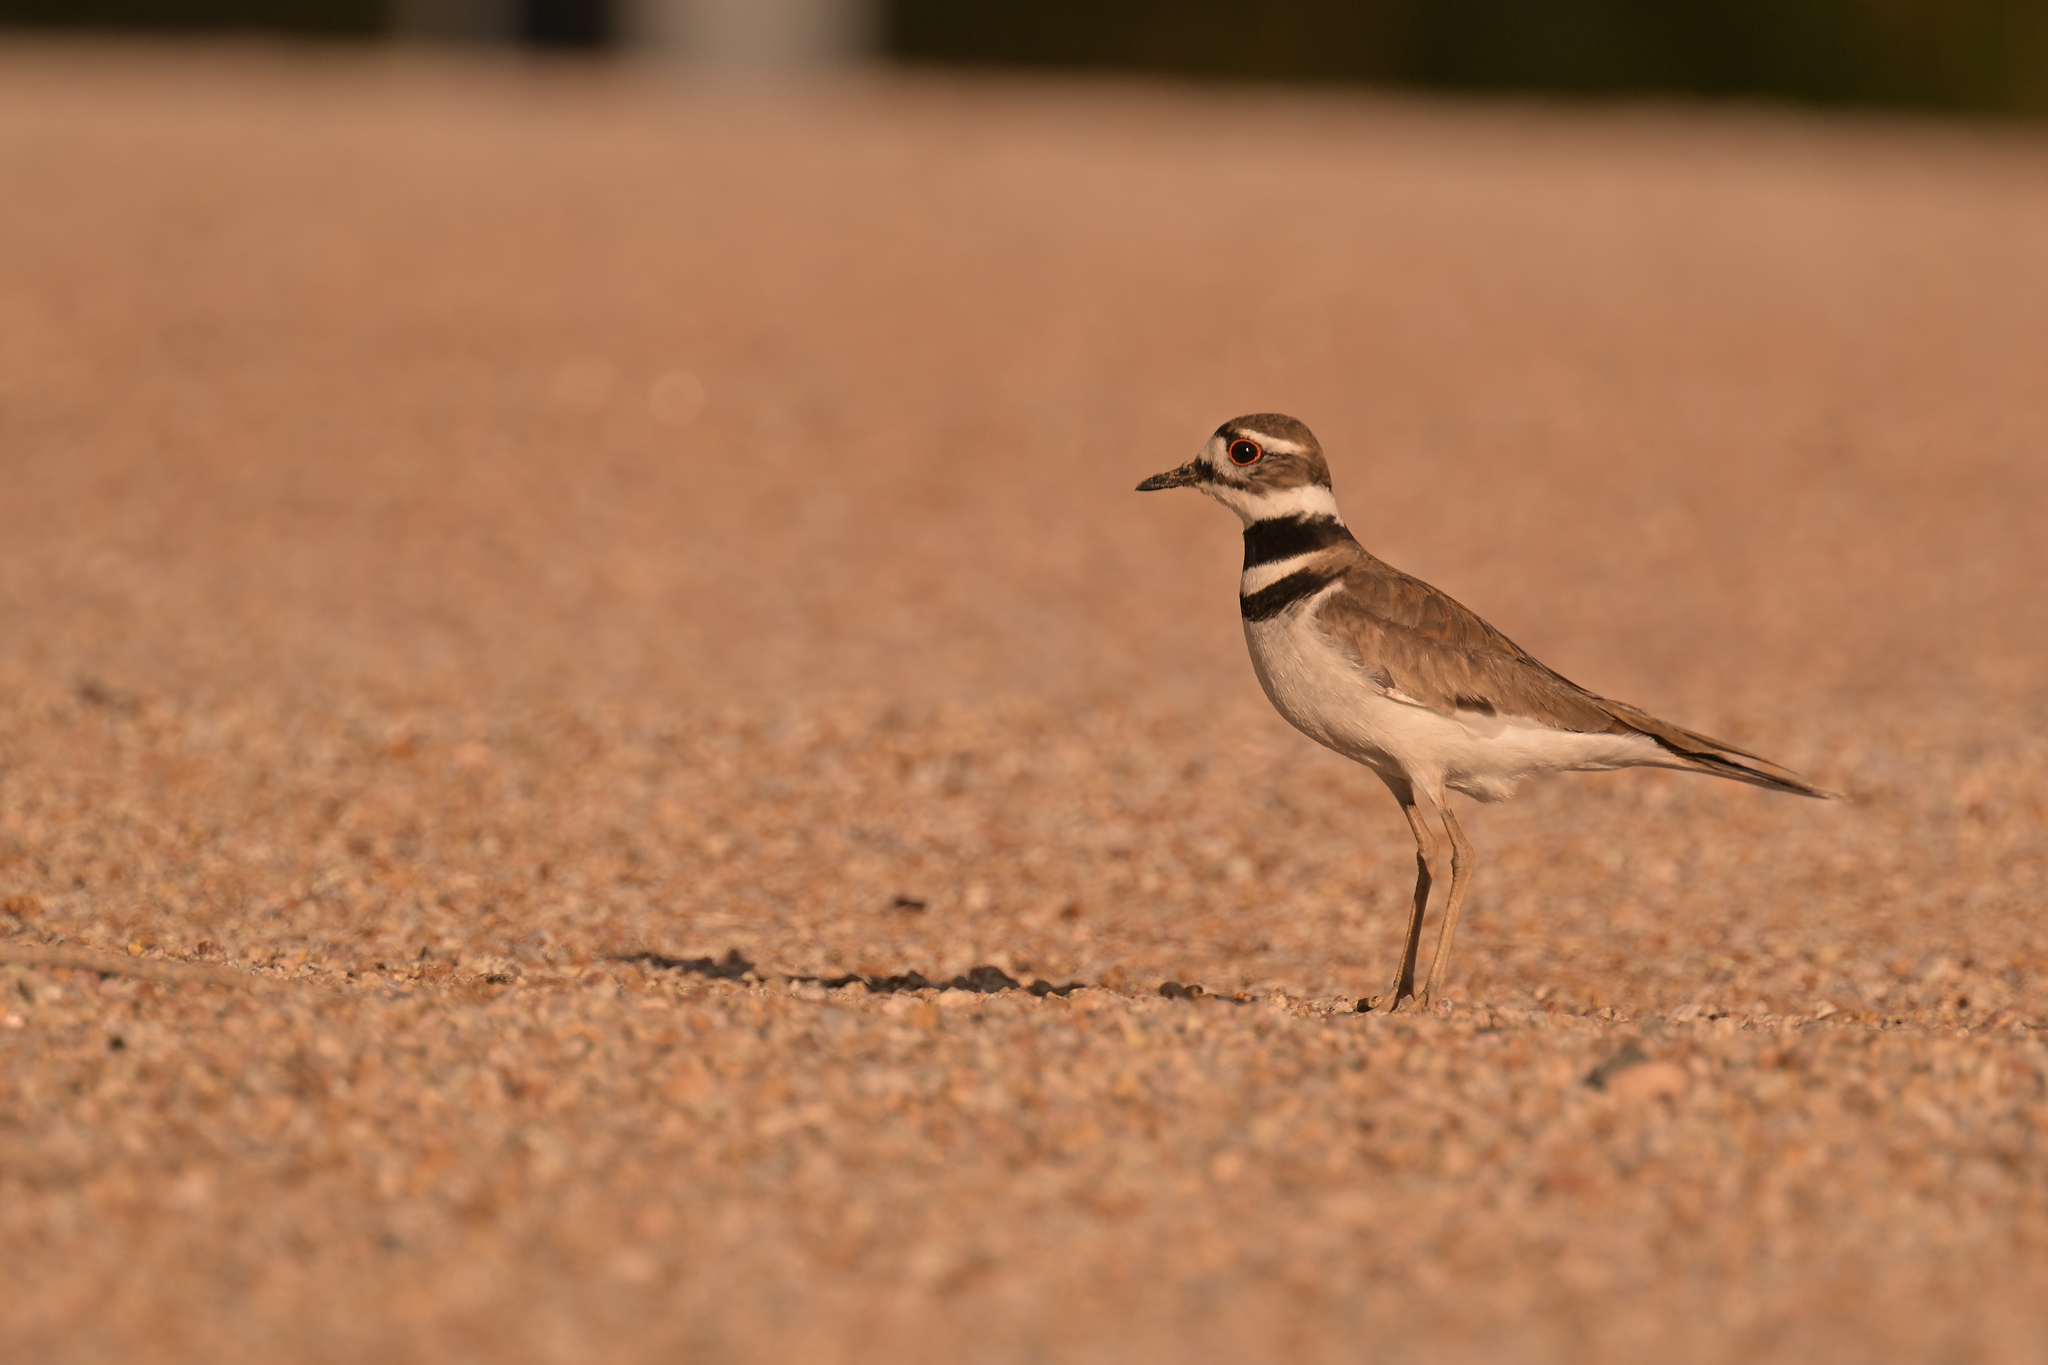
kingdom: Animalia
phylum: Chordata
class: Aves
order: Charadriiformes
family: Charadriidae
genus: Charadrius
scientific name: Charadrius vociferus
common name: Killdeer
